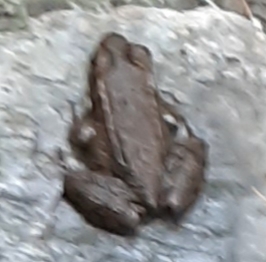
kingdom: Animalia
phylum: Chordata
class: Amphibia
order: Anura
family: Ranidae
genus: Lithobates
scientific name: Lithobates clamitans
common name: Green frog
